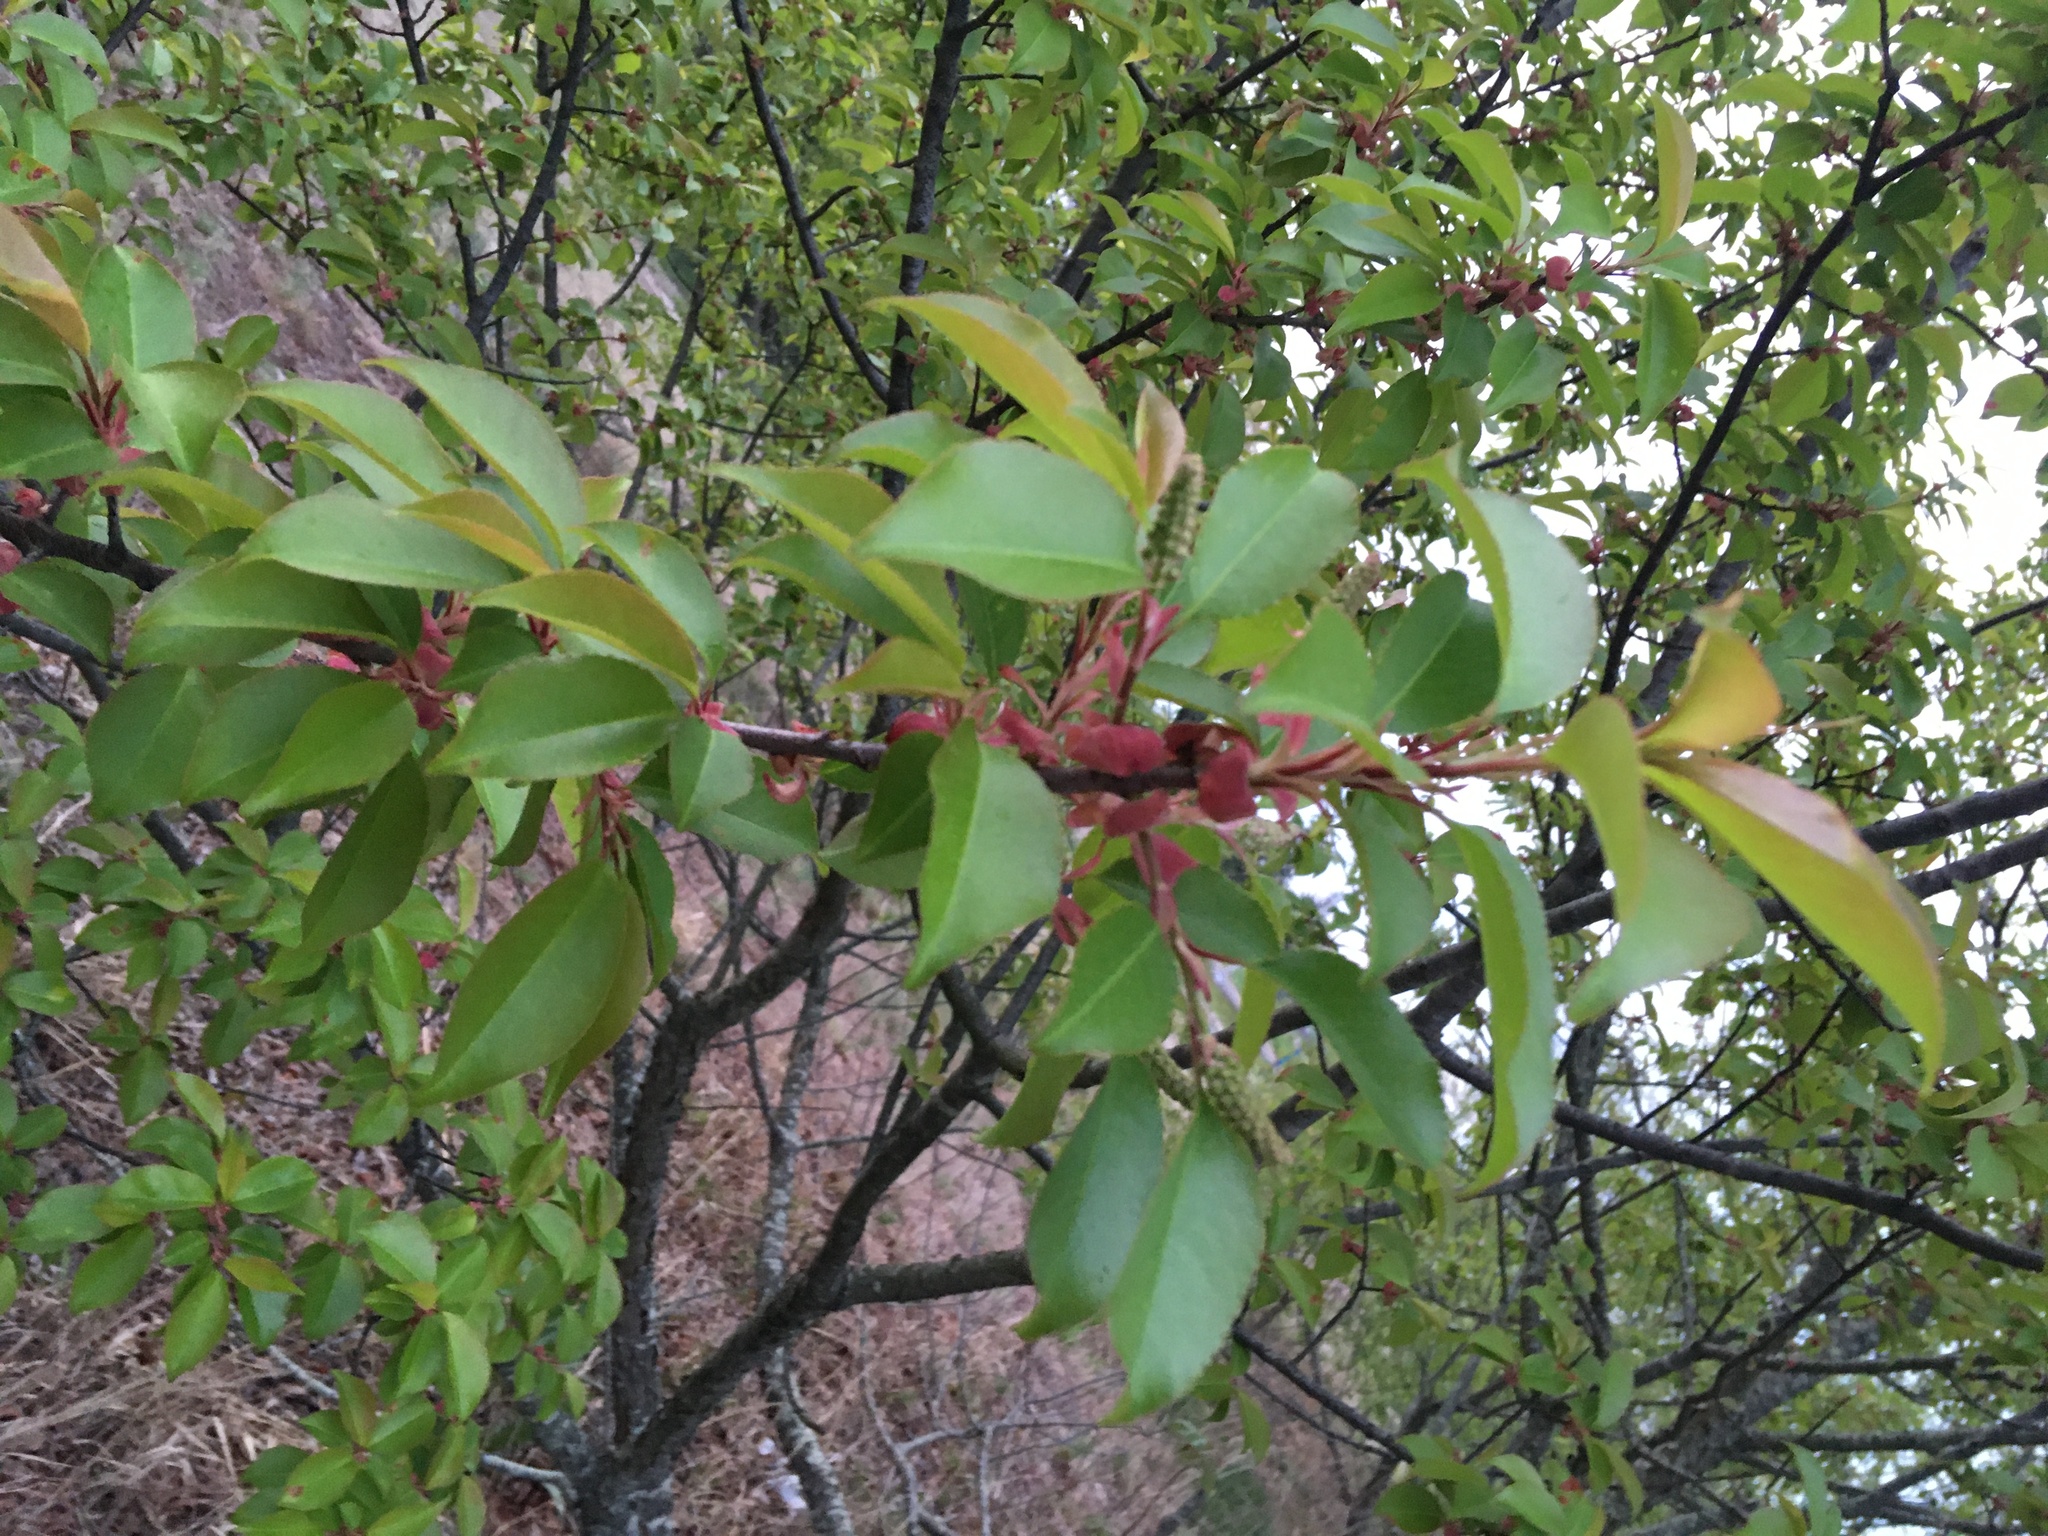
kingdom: Plantae
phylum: Tracheophyta
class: Magnoliopsida
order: Rosales
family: Rosaceae
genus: Prunus
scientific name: Prunus serotina
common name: Black cherry
